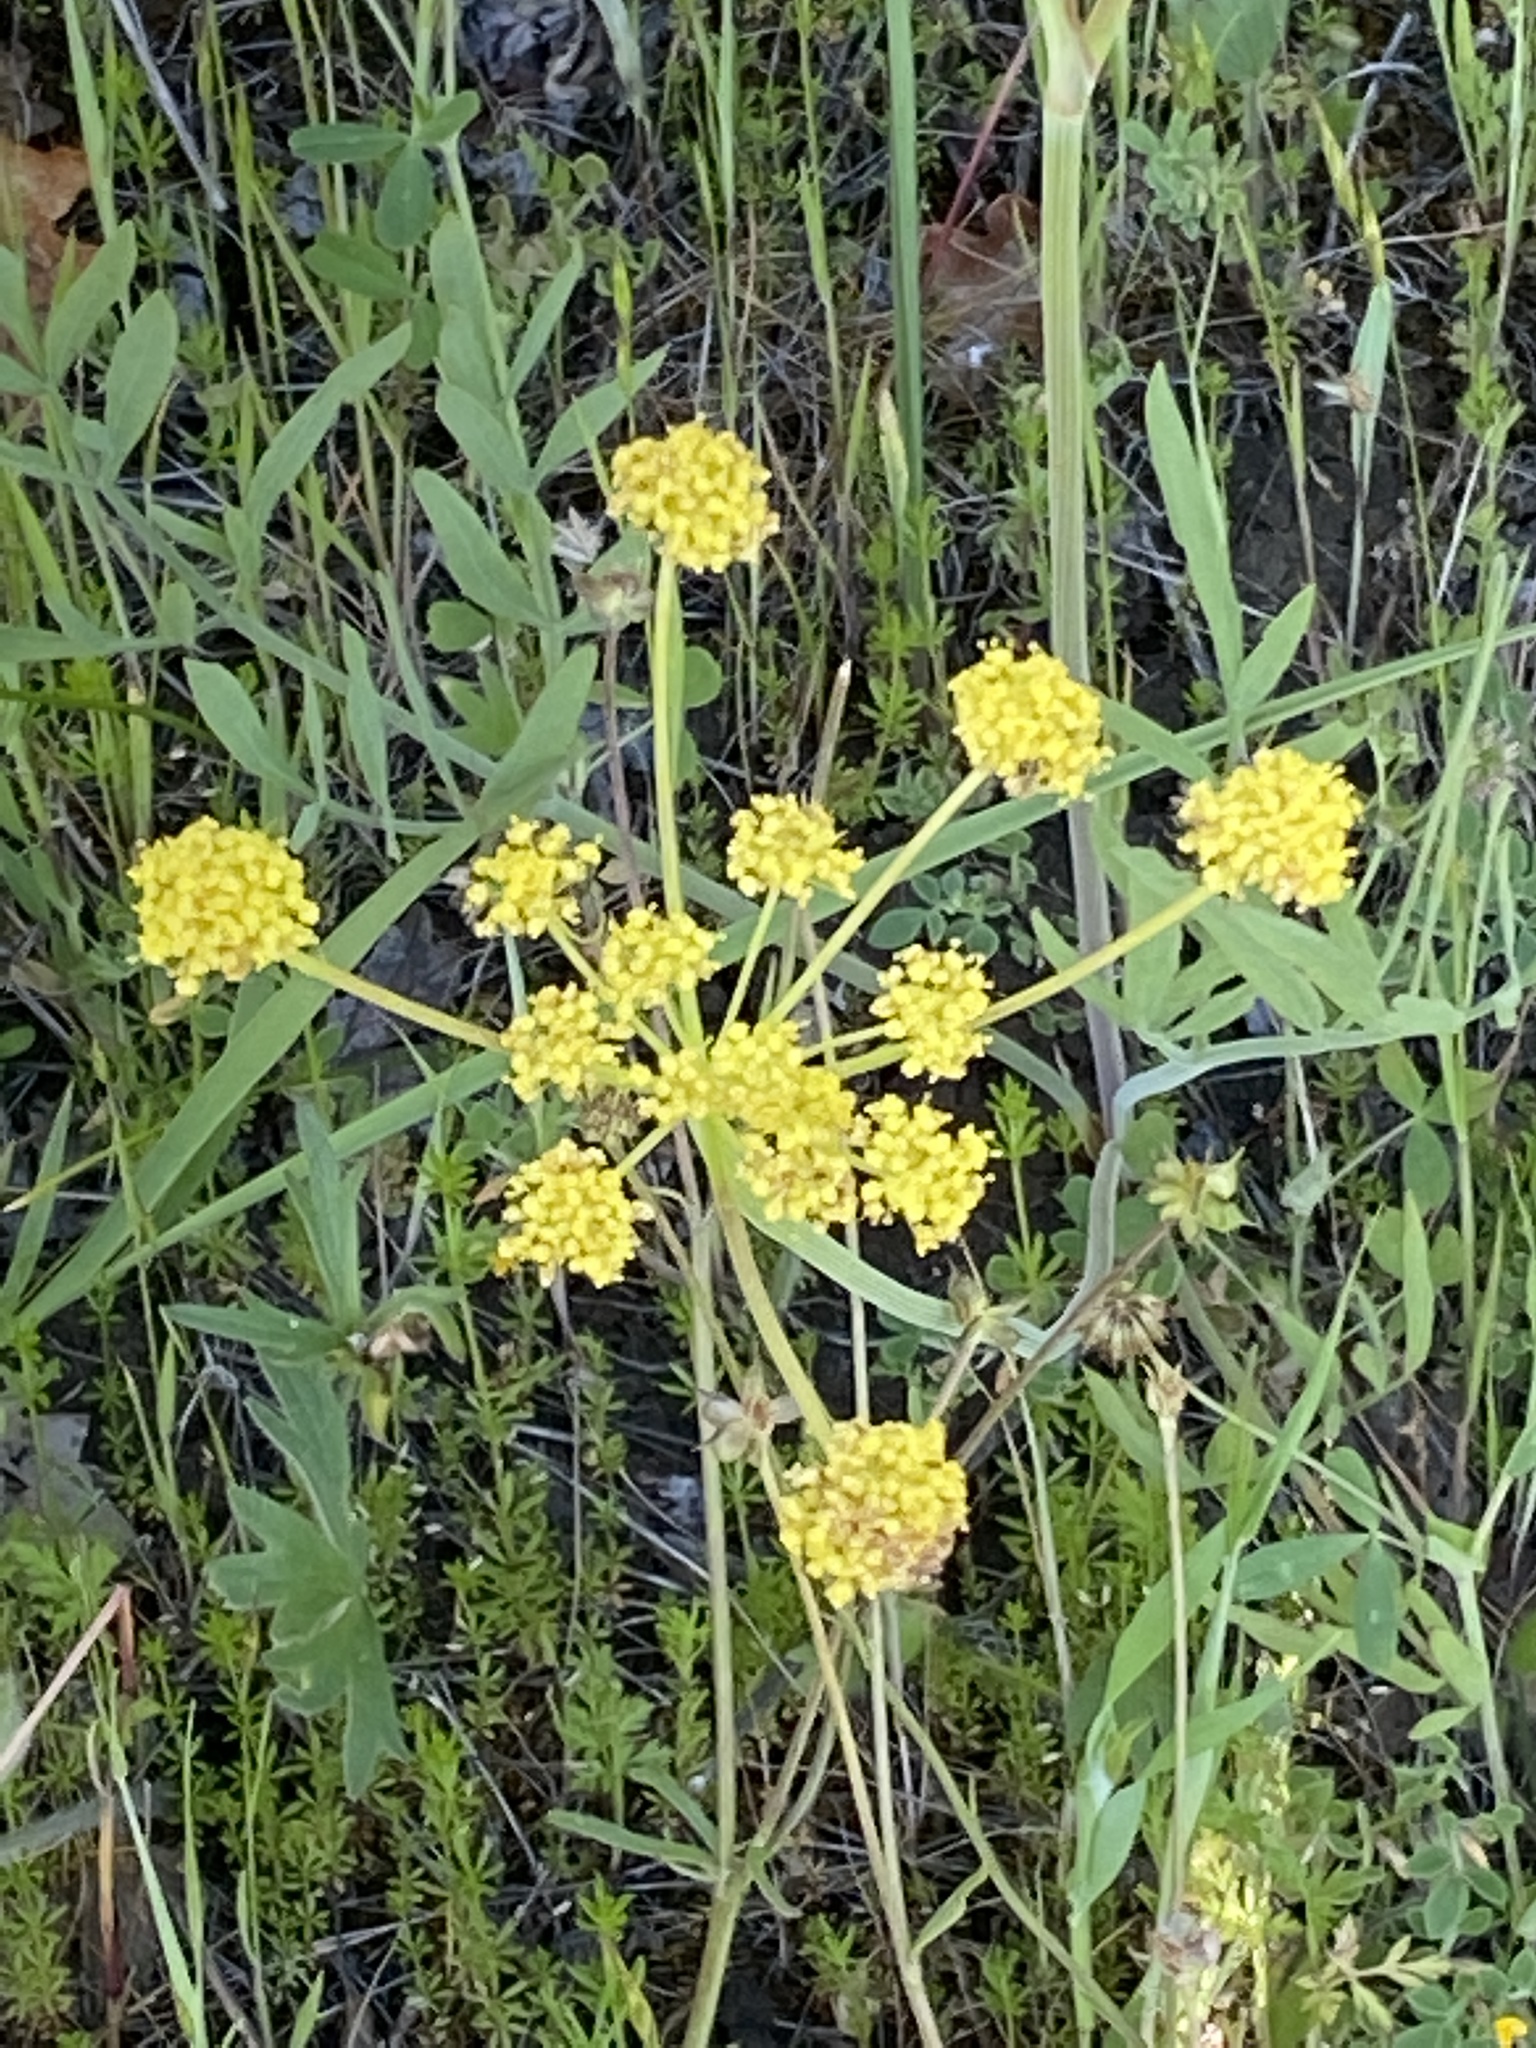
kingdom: Plantae
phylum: Tracheophyta
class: Magnoliopsida
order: Apiales
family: Apiaceae
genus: Lomatium
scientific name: Lomatium triternatum
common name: Ternate lomatium
